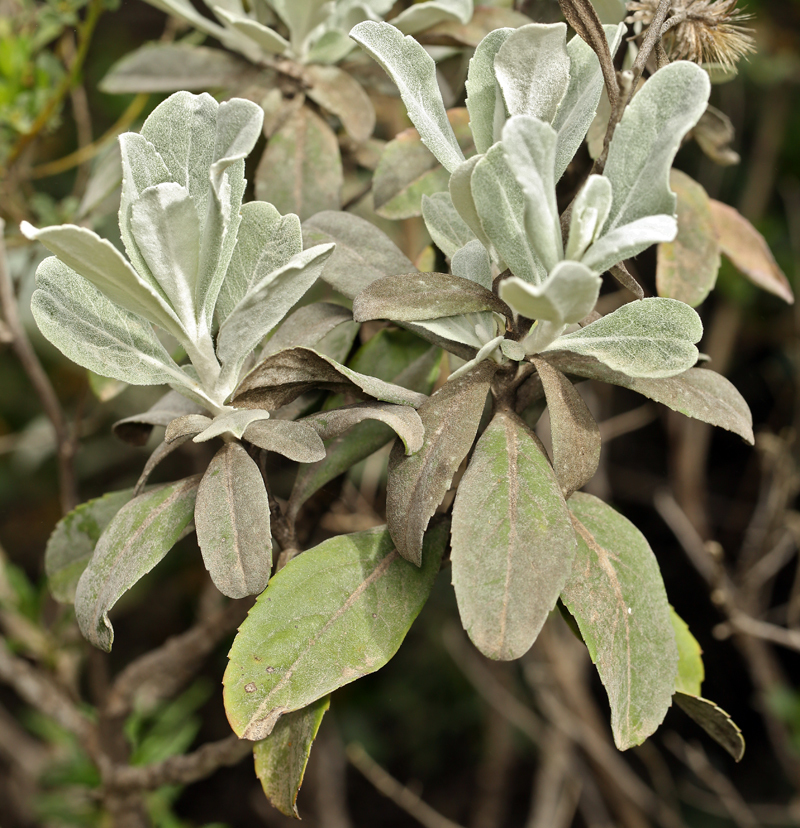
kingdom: Plantae
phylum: Tracheophyta
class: Magnoliopsida
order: Asterales
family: Asteraceae
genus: Hazardia
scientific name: Hazardia detonsa
